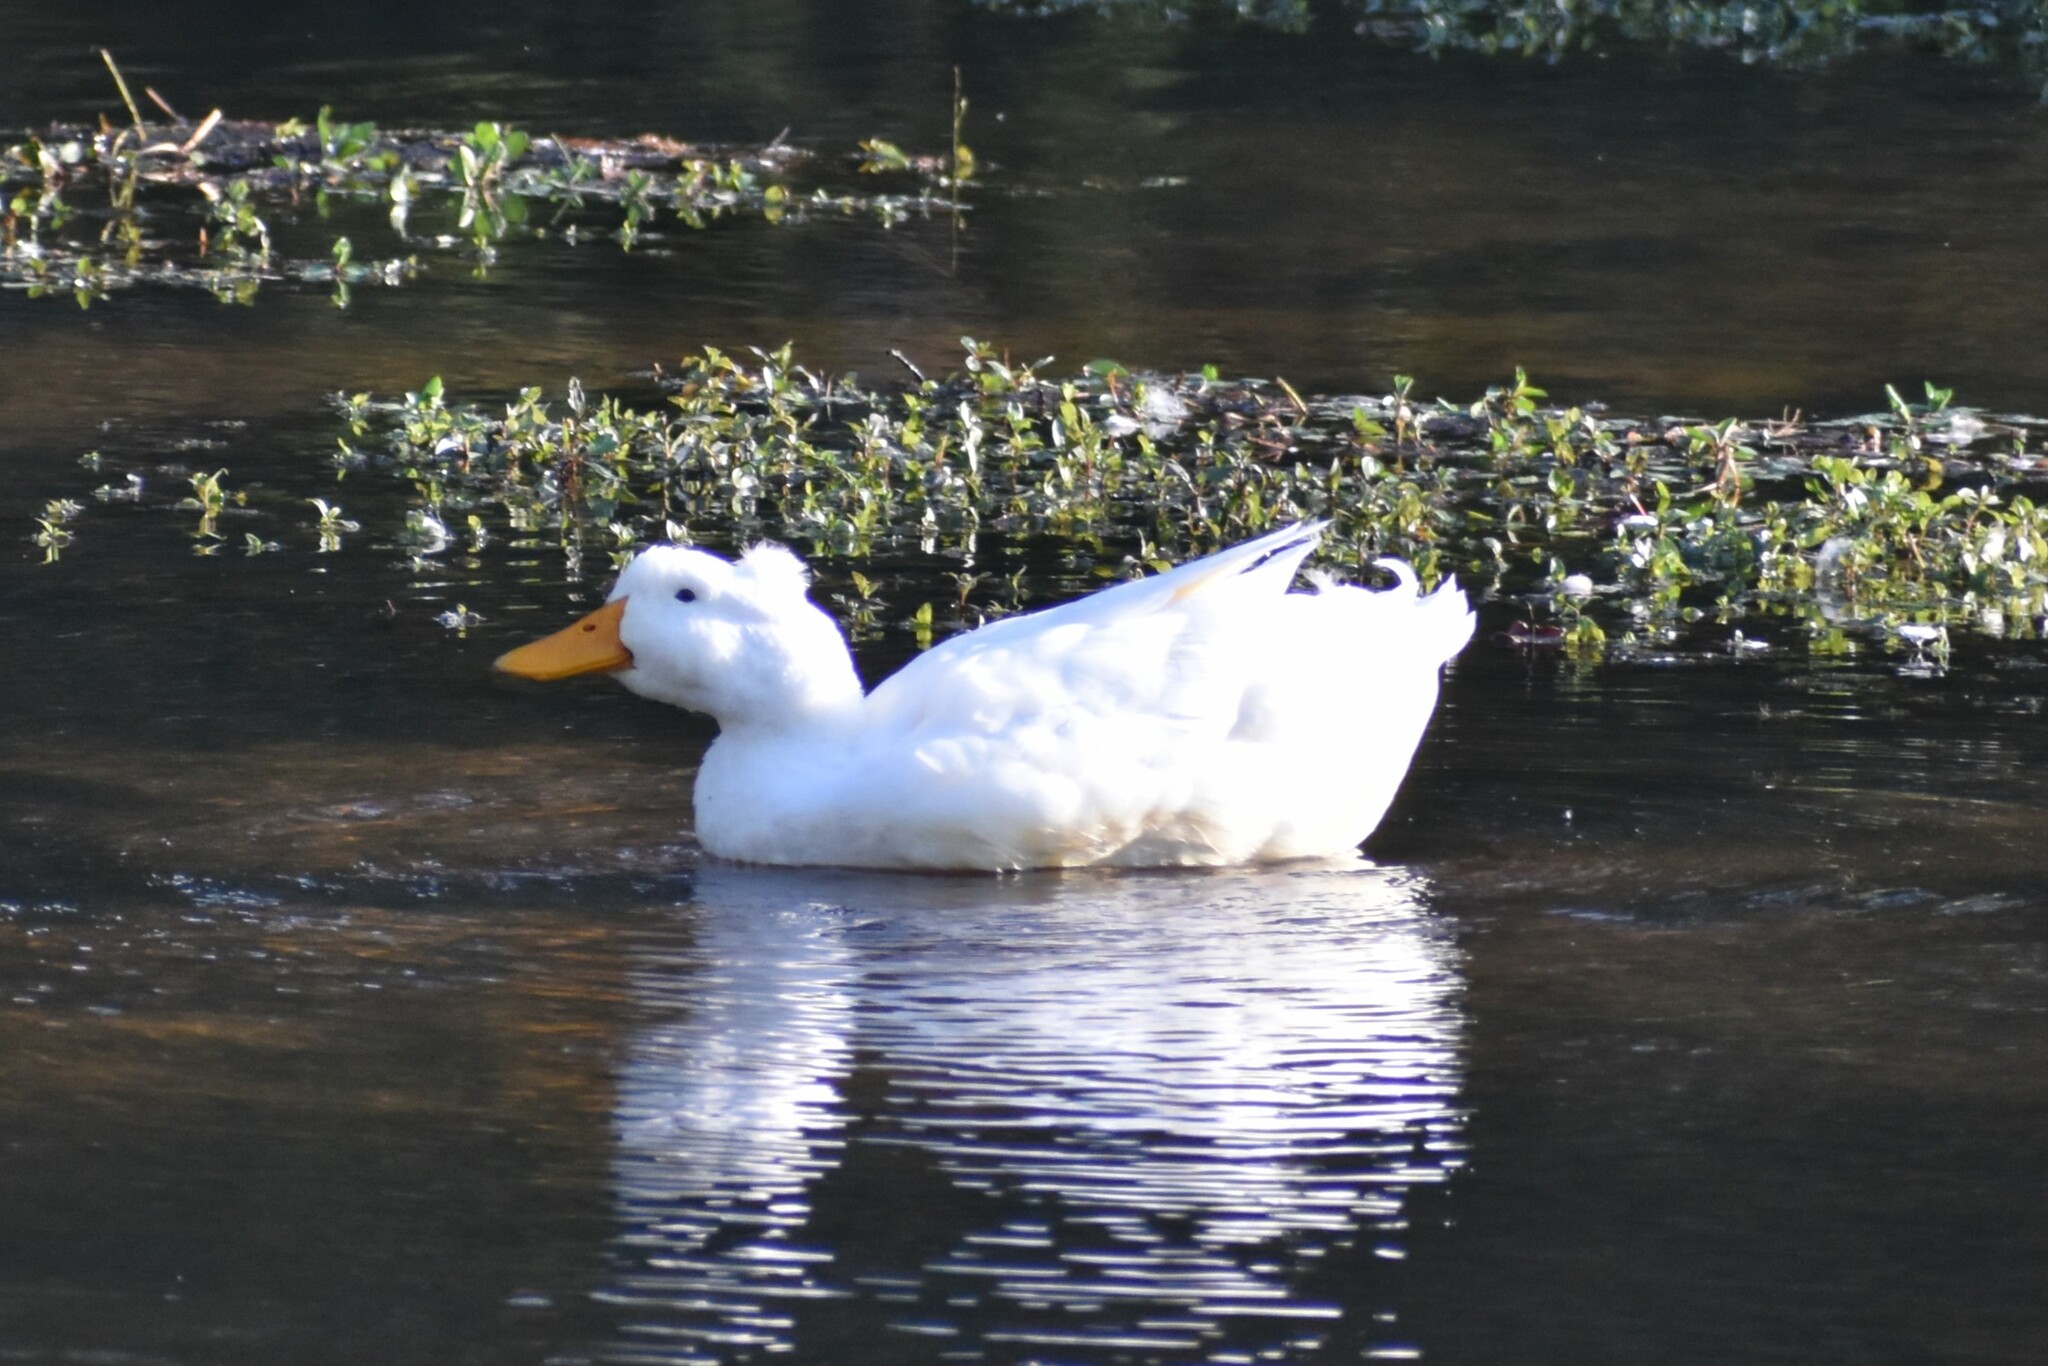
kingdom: Animalia
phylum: Chordata
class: Aves
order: Anseriformes
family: Anatidae
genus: Anas
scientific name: Anas platyrhynchos
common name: Mallard
